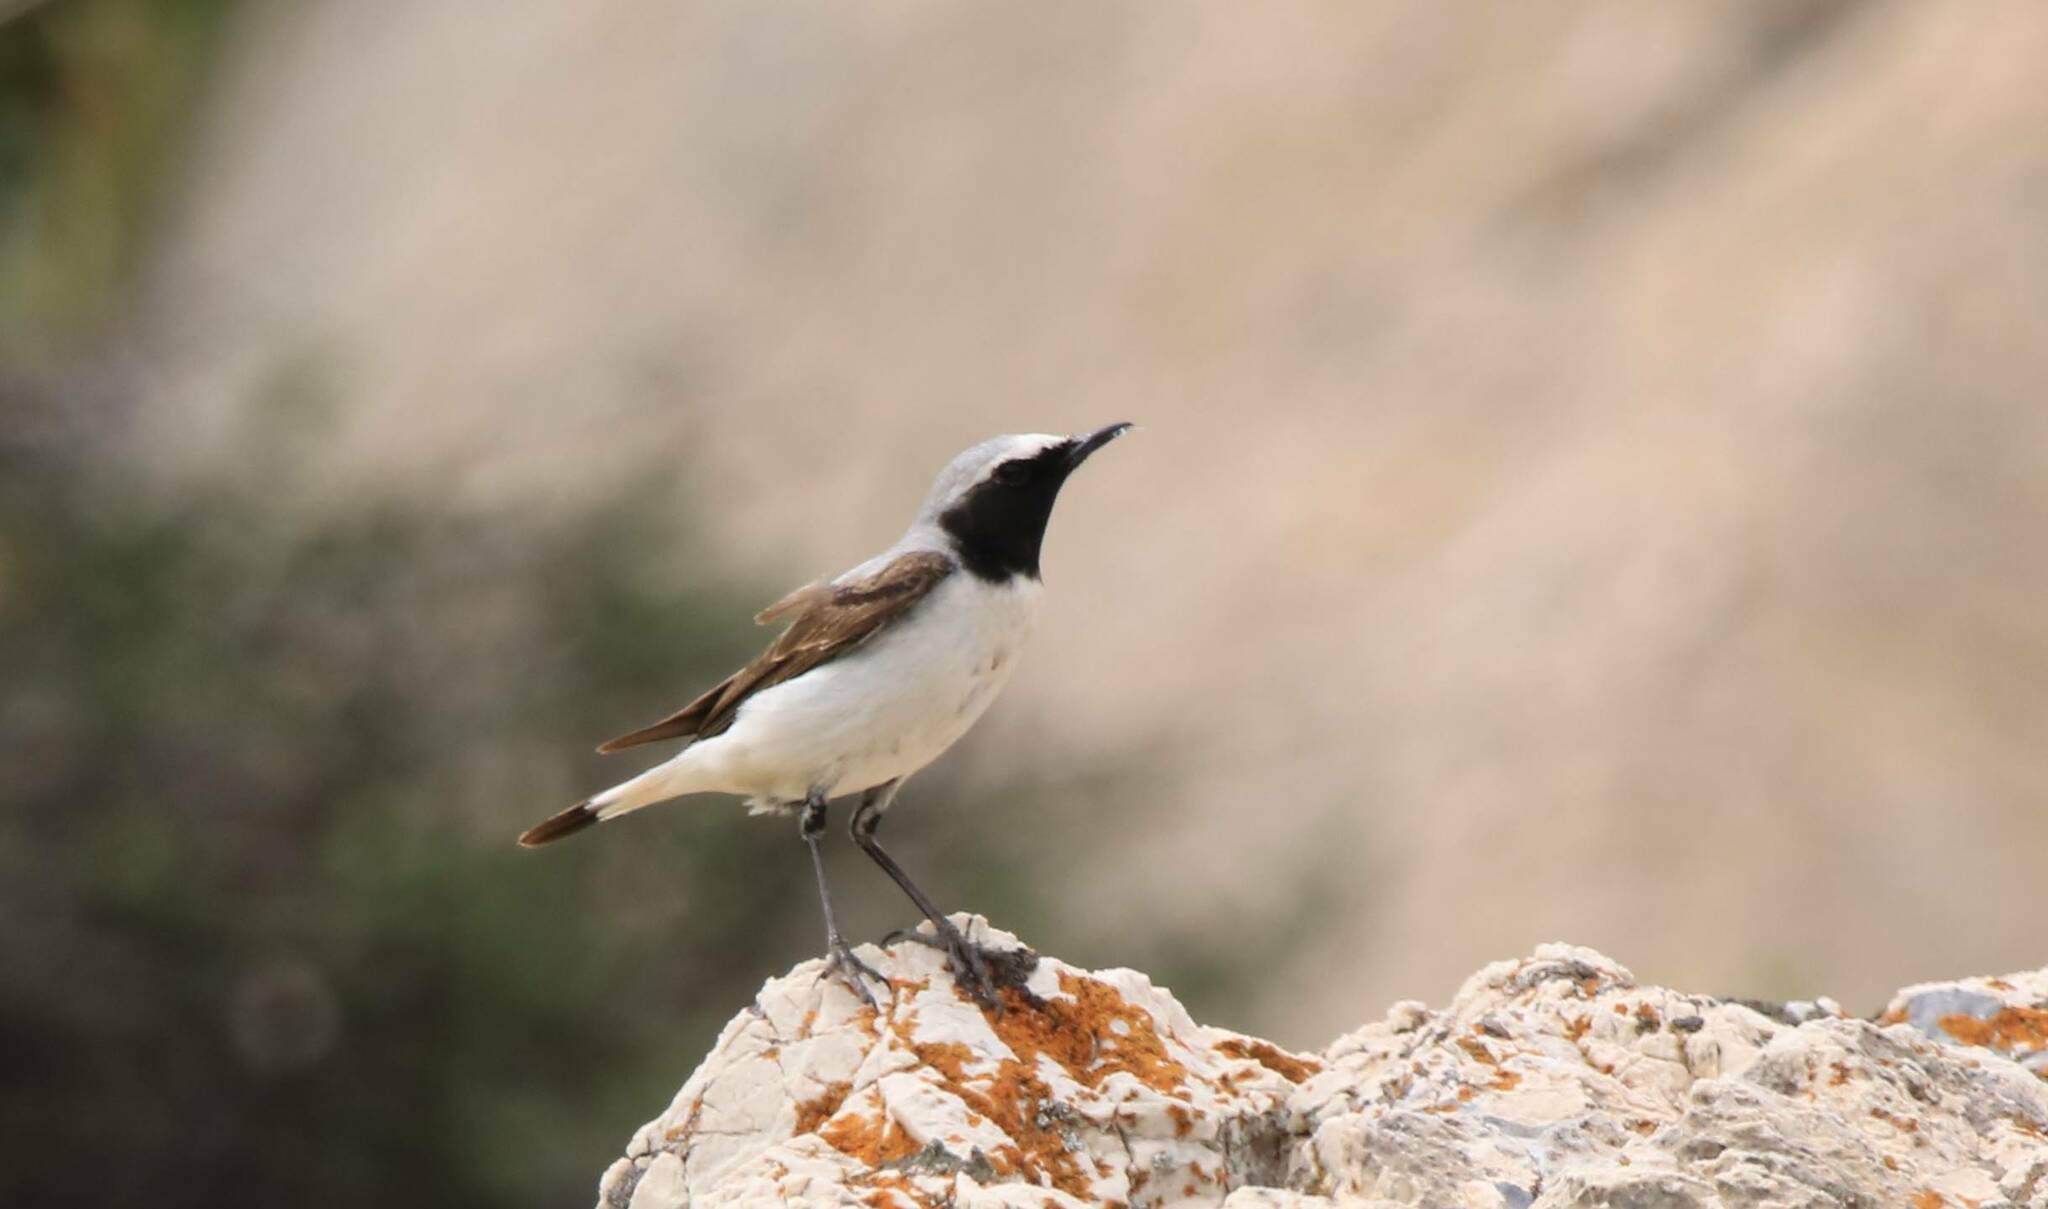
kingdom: Animalia
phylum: Chordata
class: Aves
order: Passeriformes
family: Muscicapidae
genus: Oenanthe
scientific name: Oenanthe oenanthe
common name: Northern wheatear
